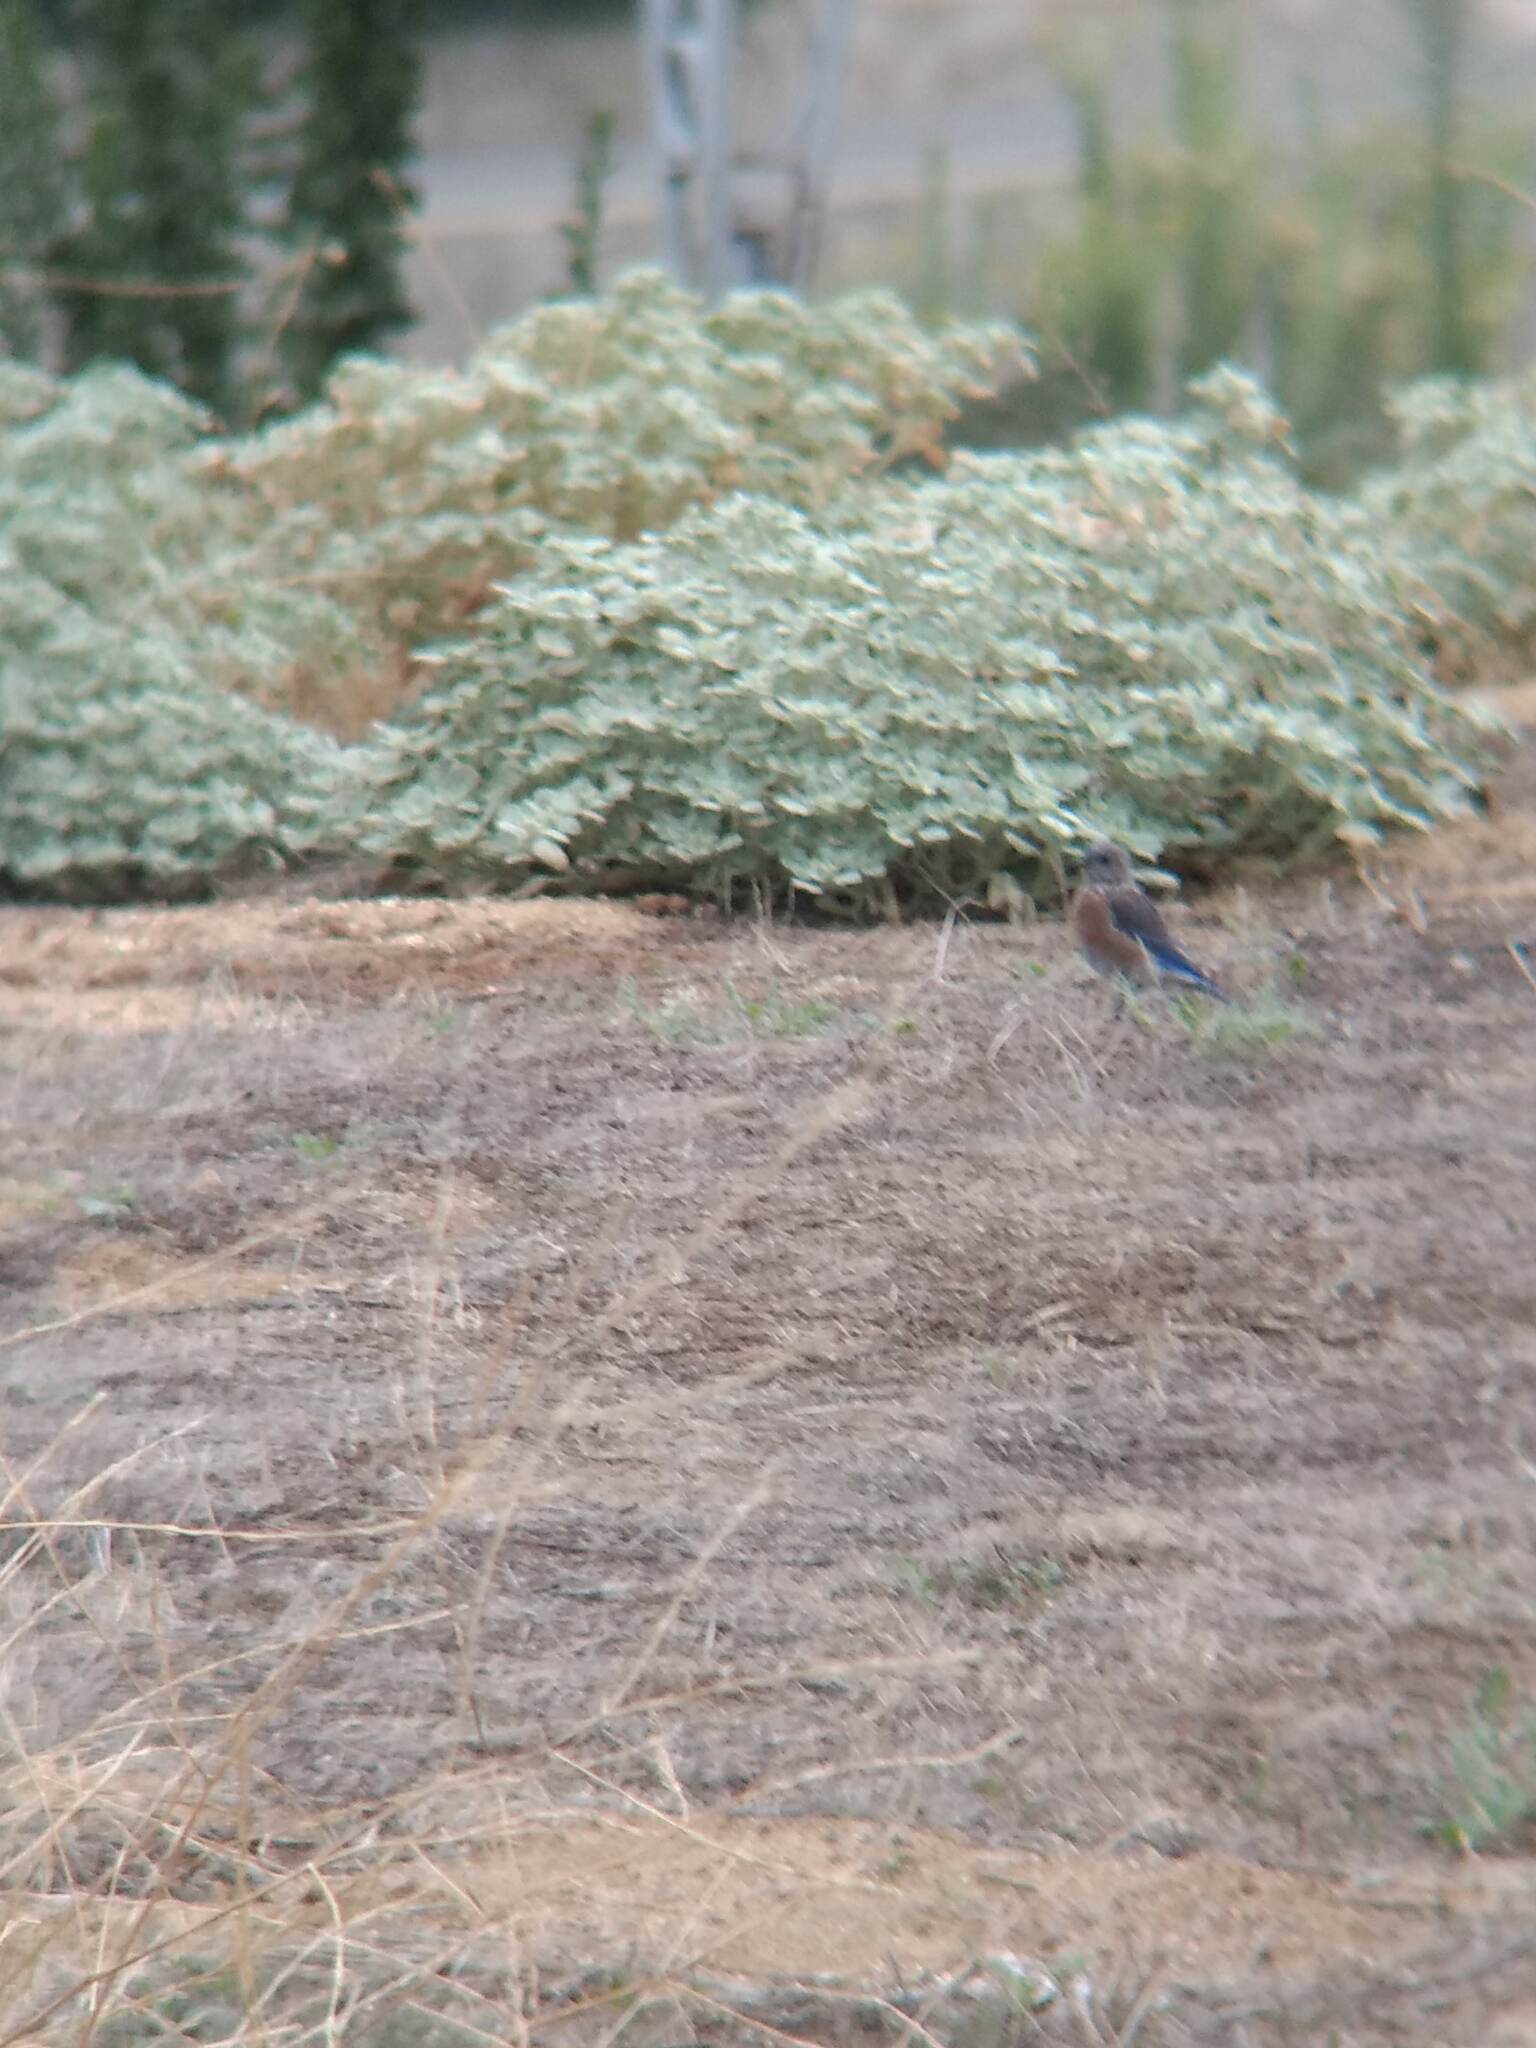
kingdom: Animalia
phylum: Chordata
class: Aves
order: Passeriformes
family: Turdidae
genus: Sialia
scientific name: Sialia mexicana
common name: Western bluebird
